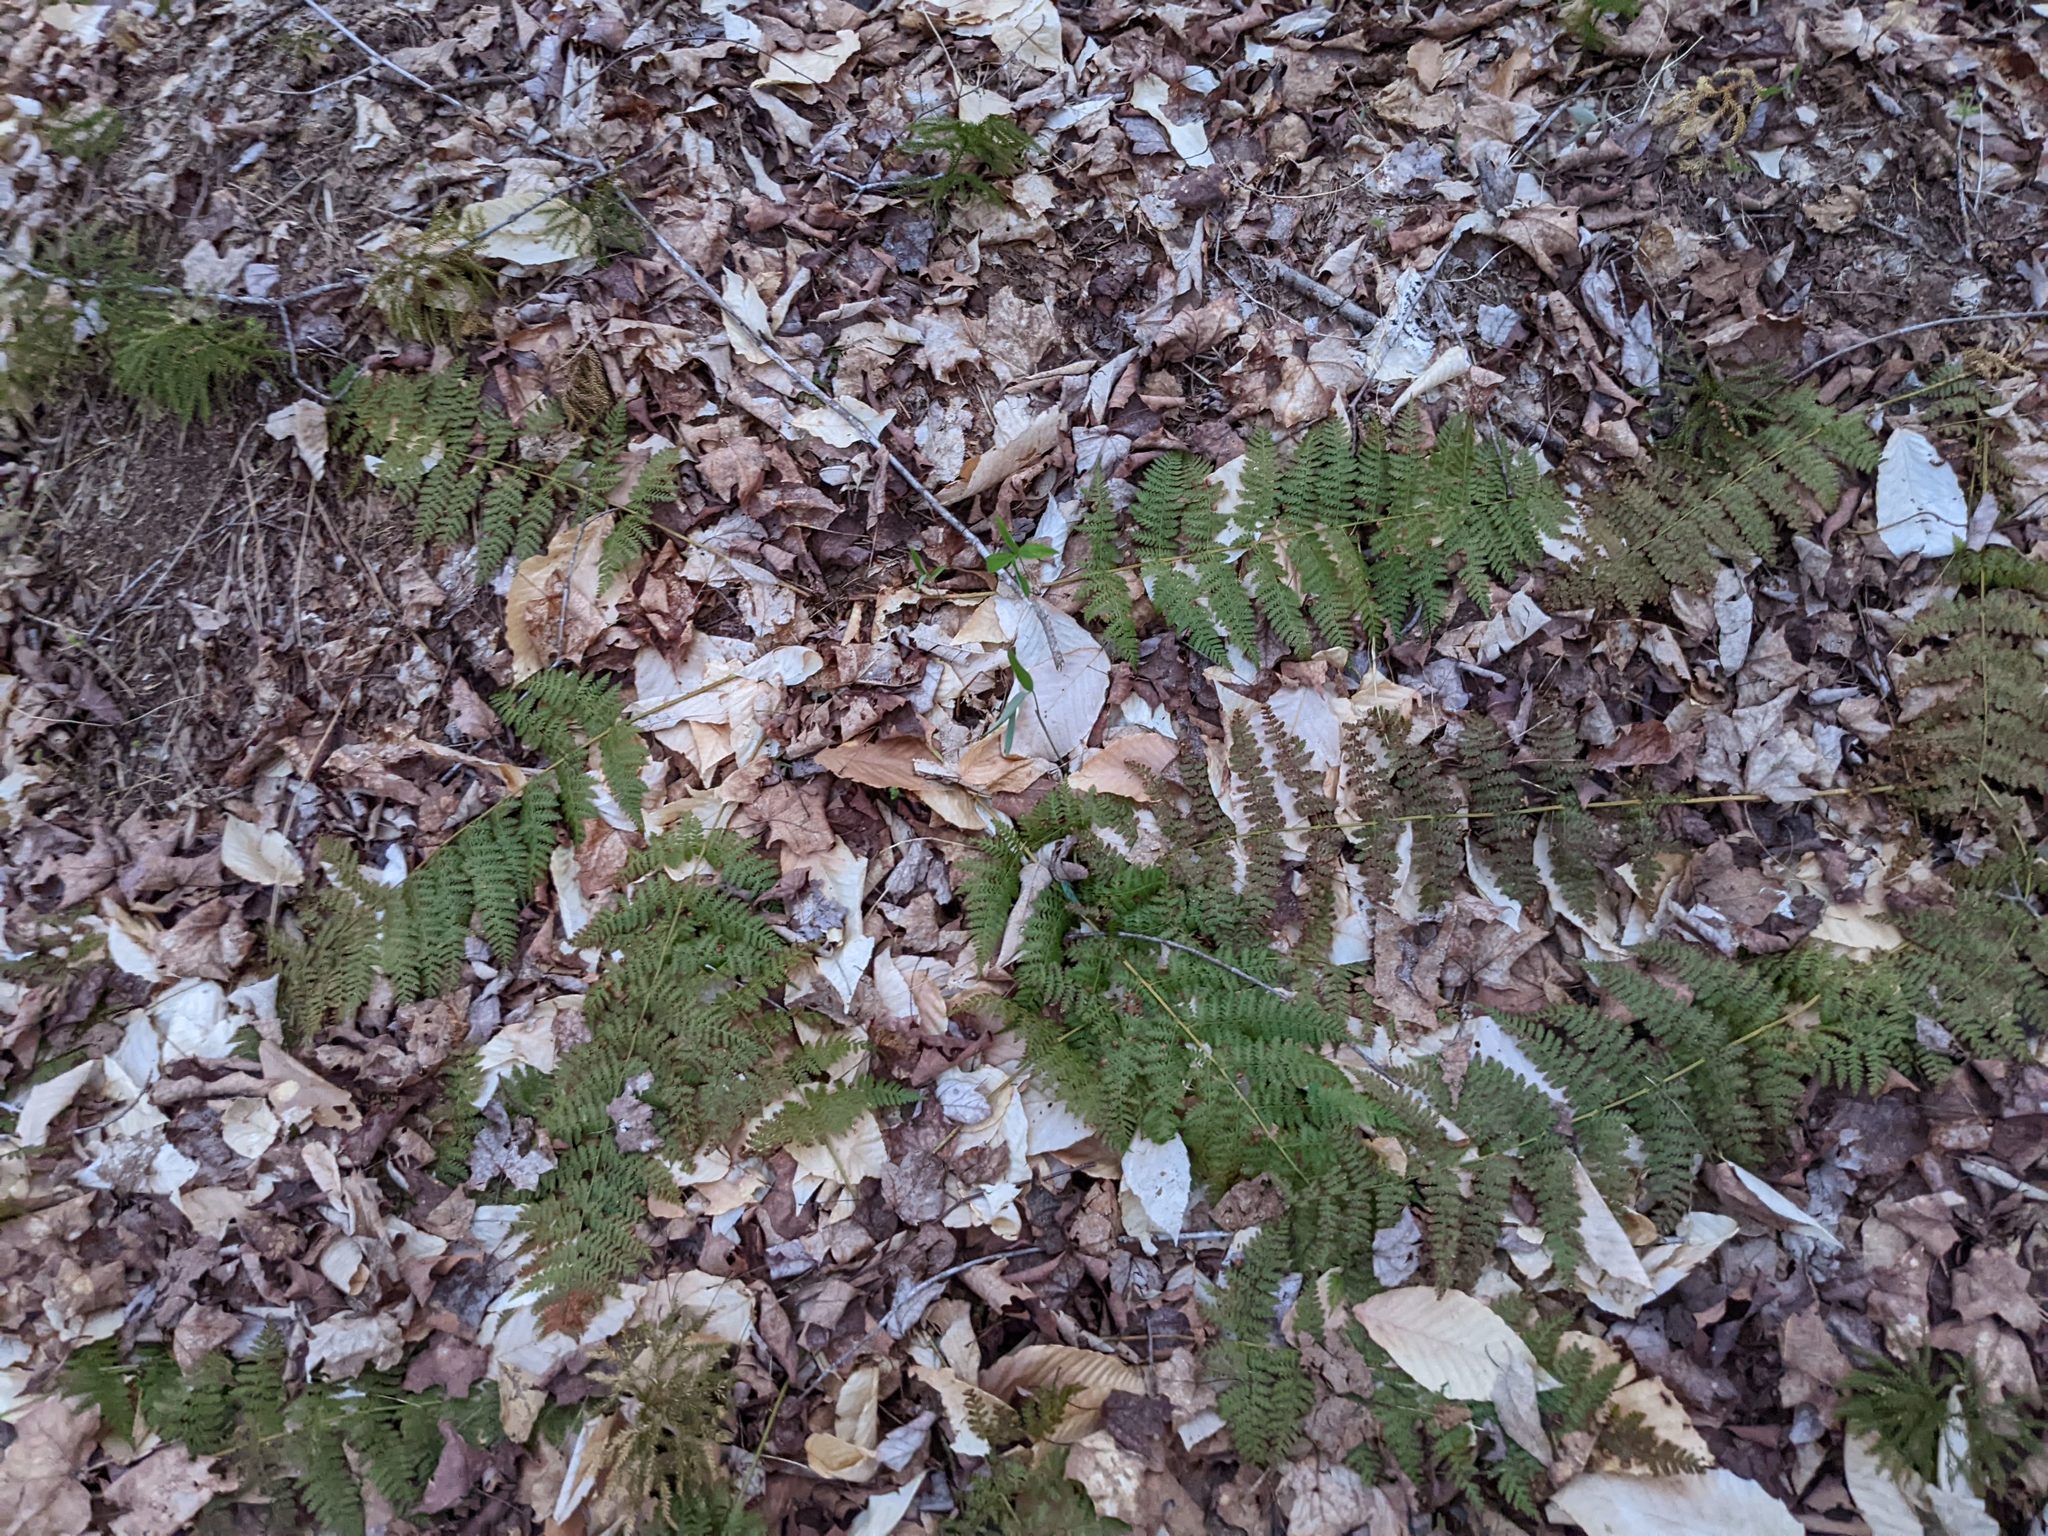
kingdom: Plantae
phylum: Tracheophyta
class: Polypodiopsida
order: Polypodiales
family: Dryopteridaceae
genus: Dryopteris
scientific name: Dryopteris intermedia
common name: Evergreen wood fern
